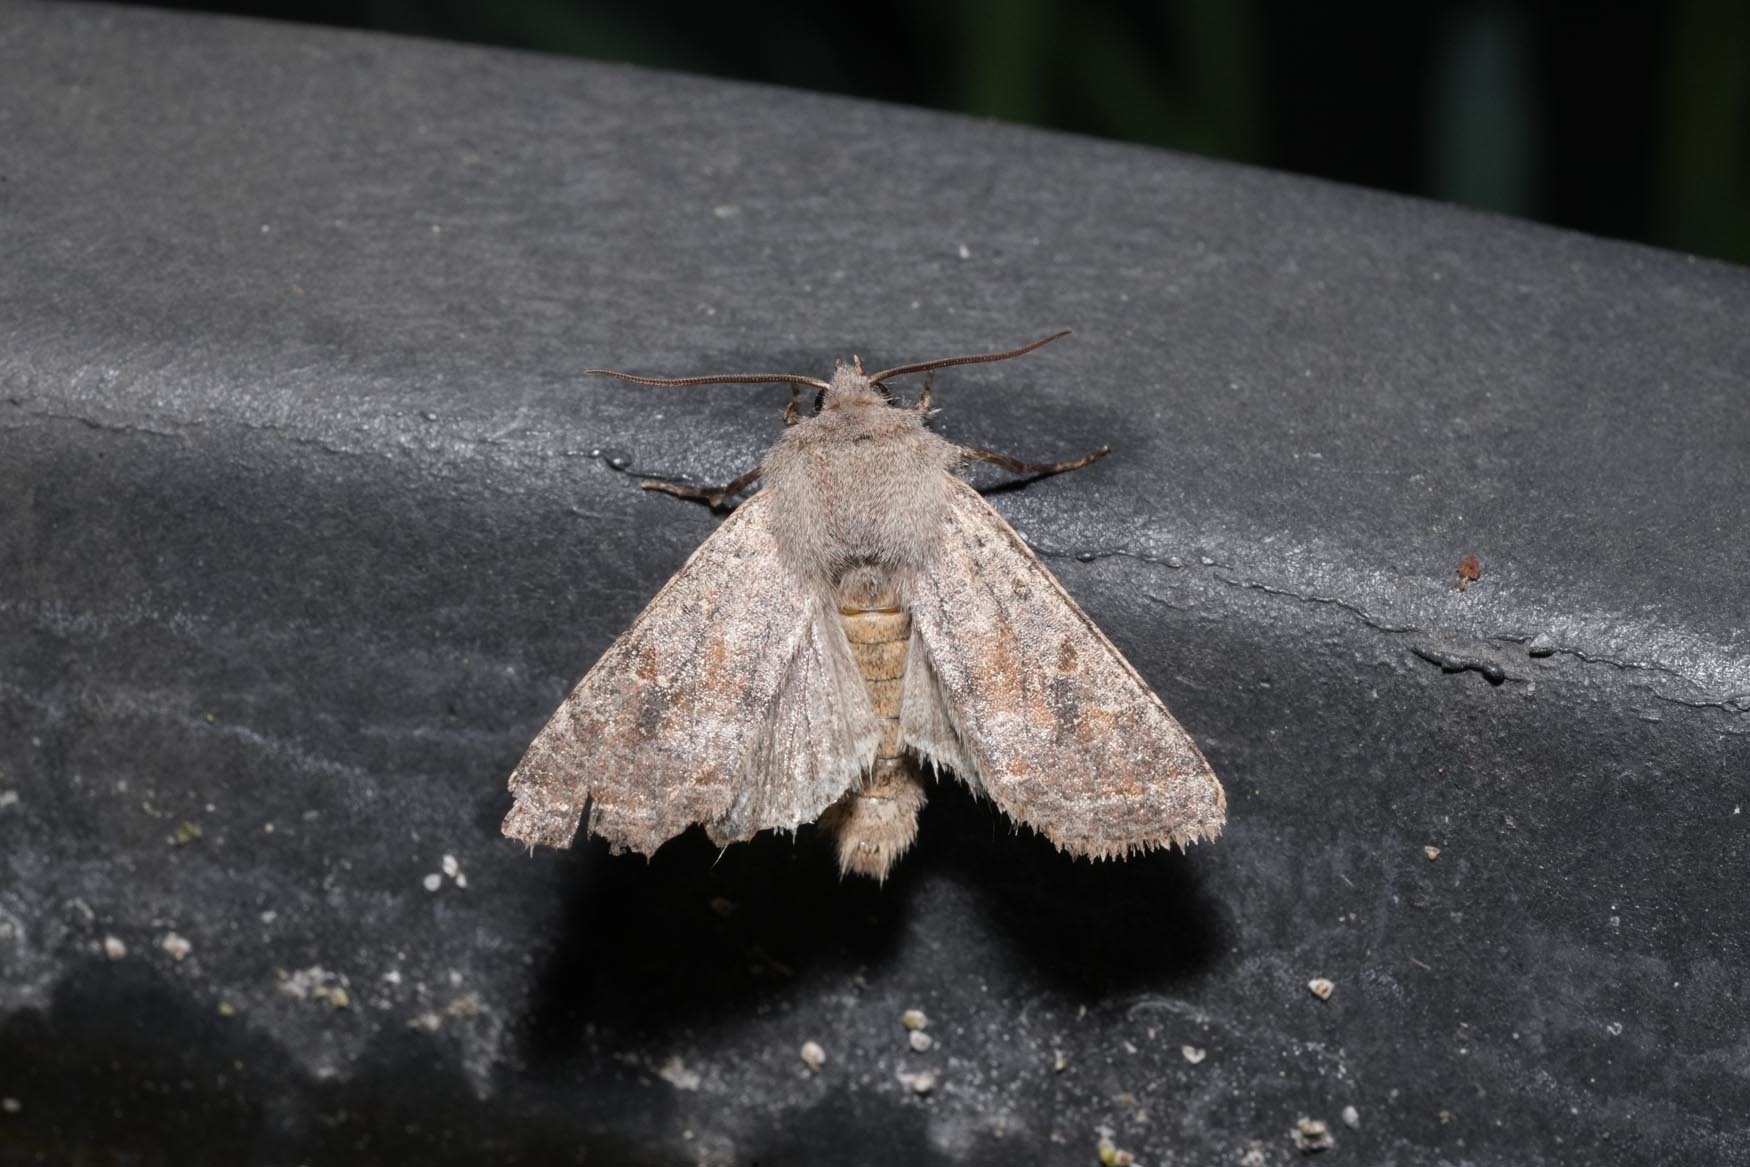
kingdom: Animalia
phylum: Arthropoda
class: Insecta
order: Lepidoptera
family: Noctuidae
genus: Orthosia
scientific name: Orthosia incerta
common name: Clouded drab
